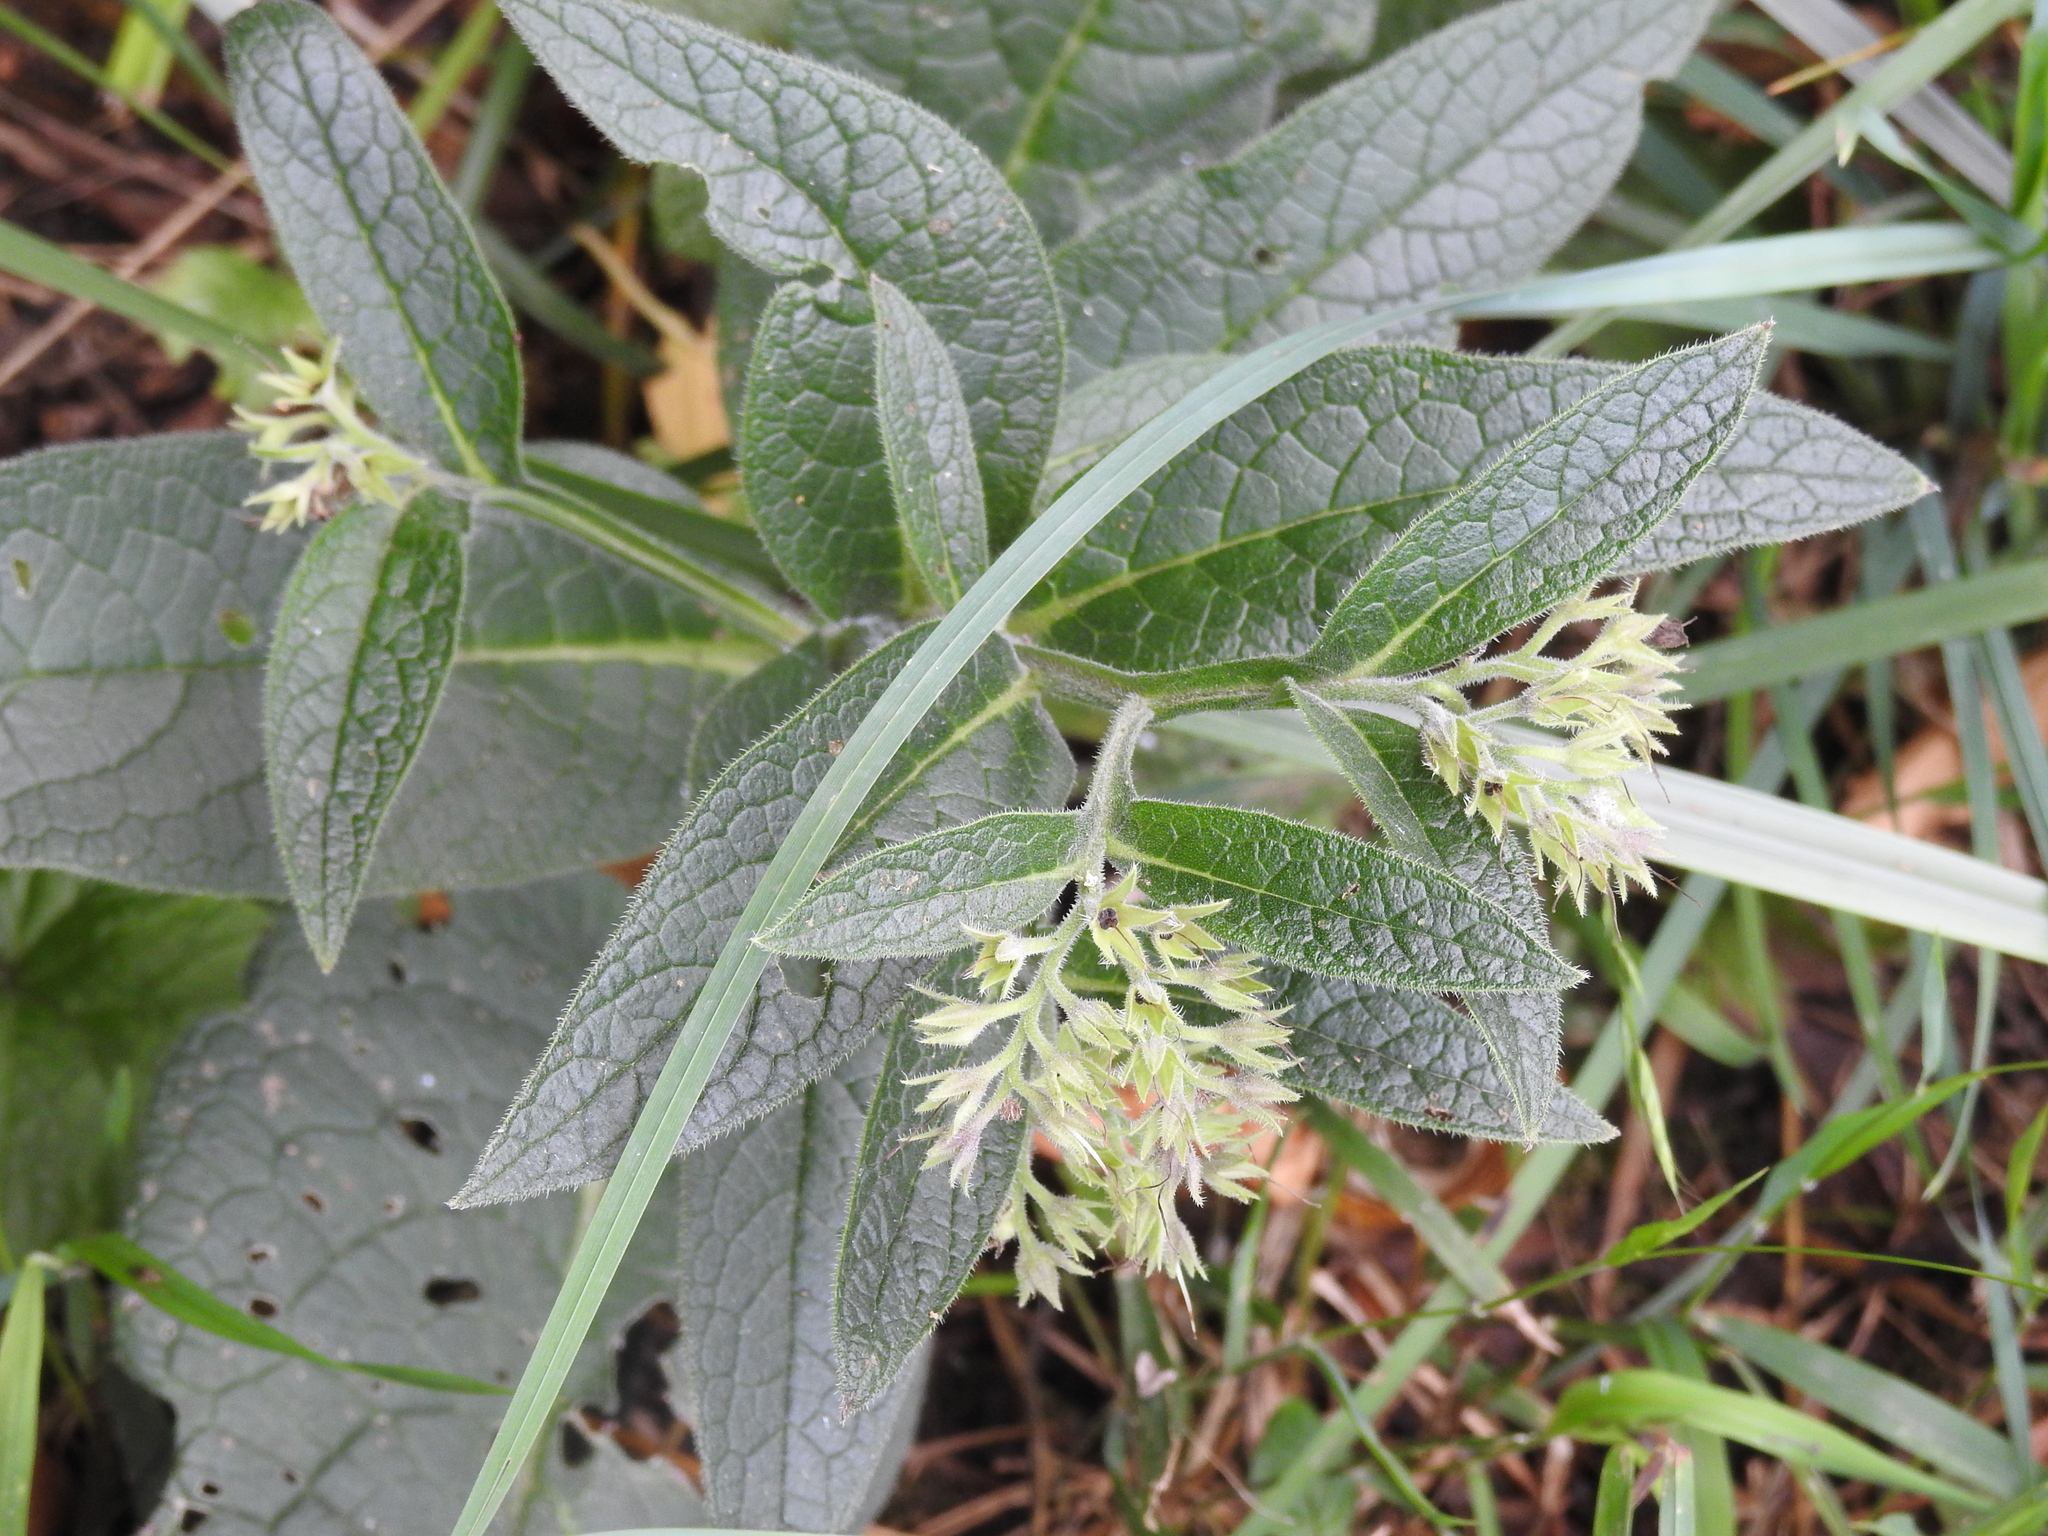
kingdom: Plantae
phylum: Tracheophyta
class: Magnoliopsida
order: Boraginales
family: Boraginaceae
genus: Symphytum
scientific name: Symphytum officinale
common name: Common comfrey
